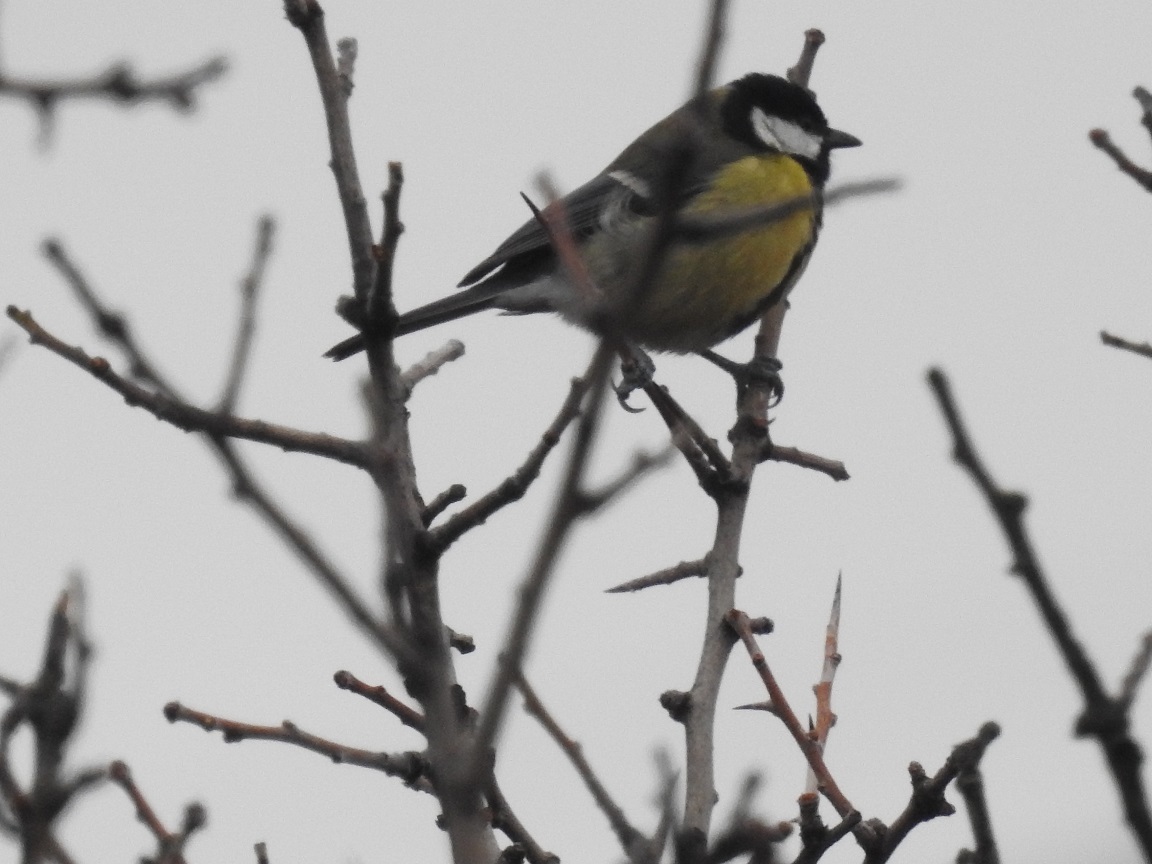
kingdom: Animalia
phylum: Chordata
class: Aves
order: Passeriformes
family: Paridae
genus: Parus
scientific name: Parus major
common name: Great tit
